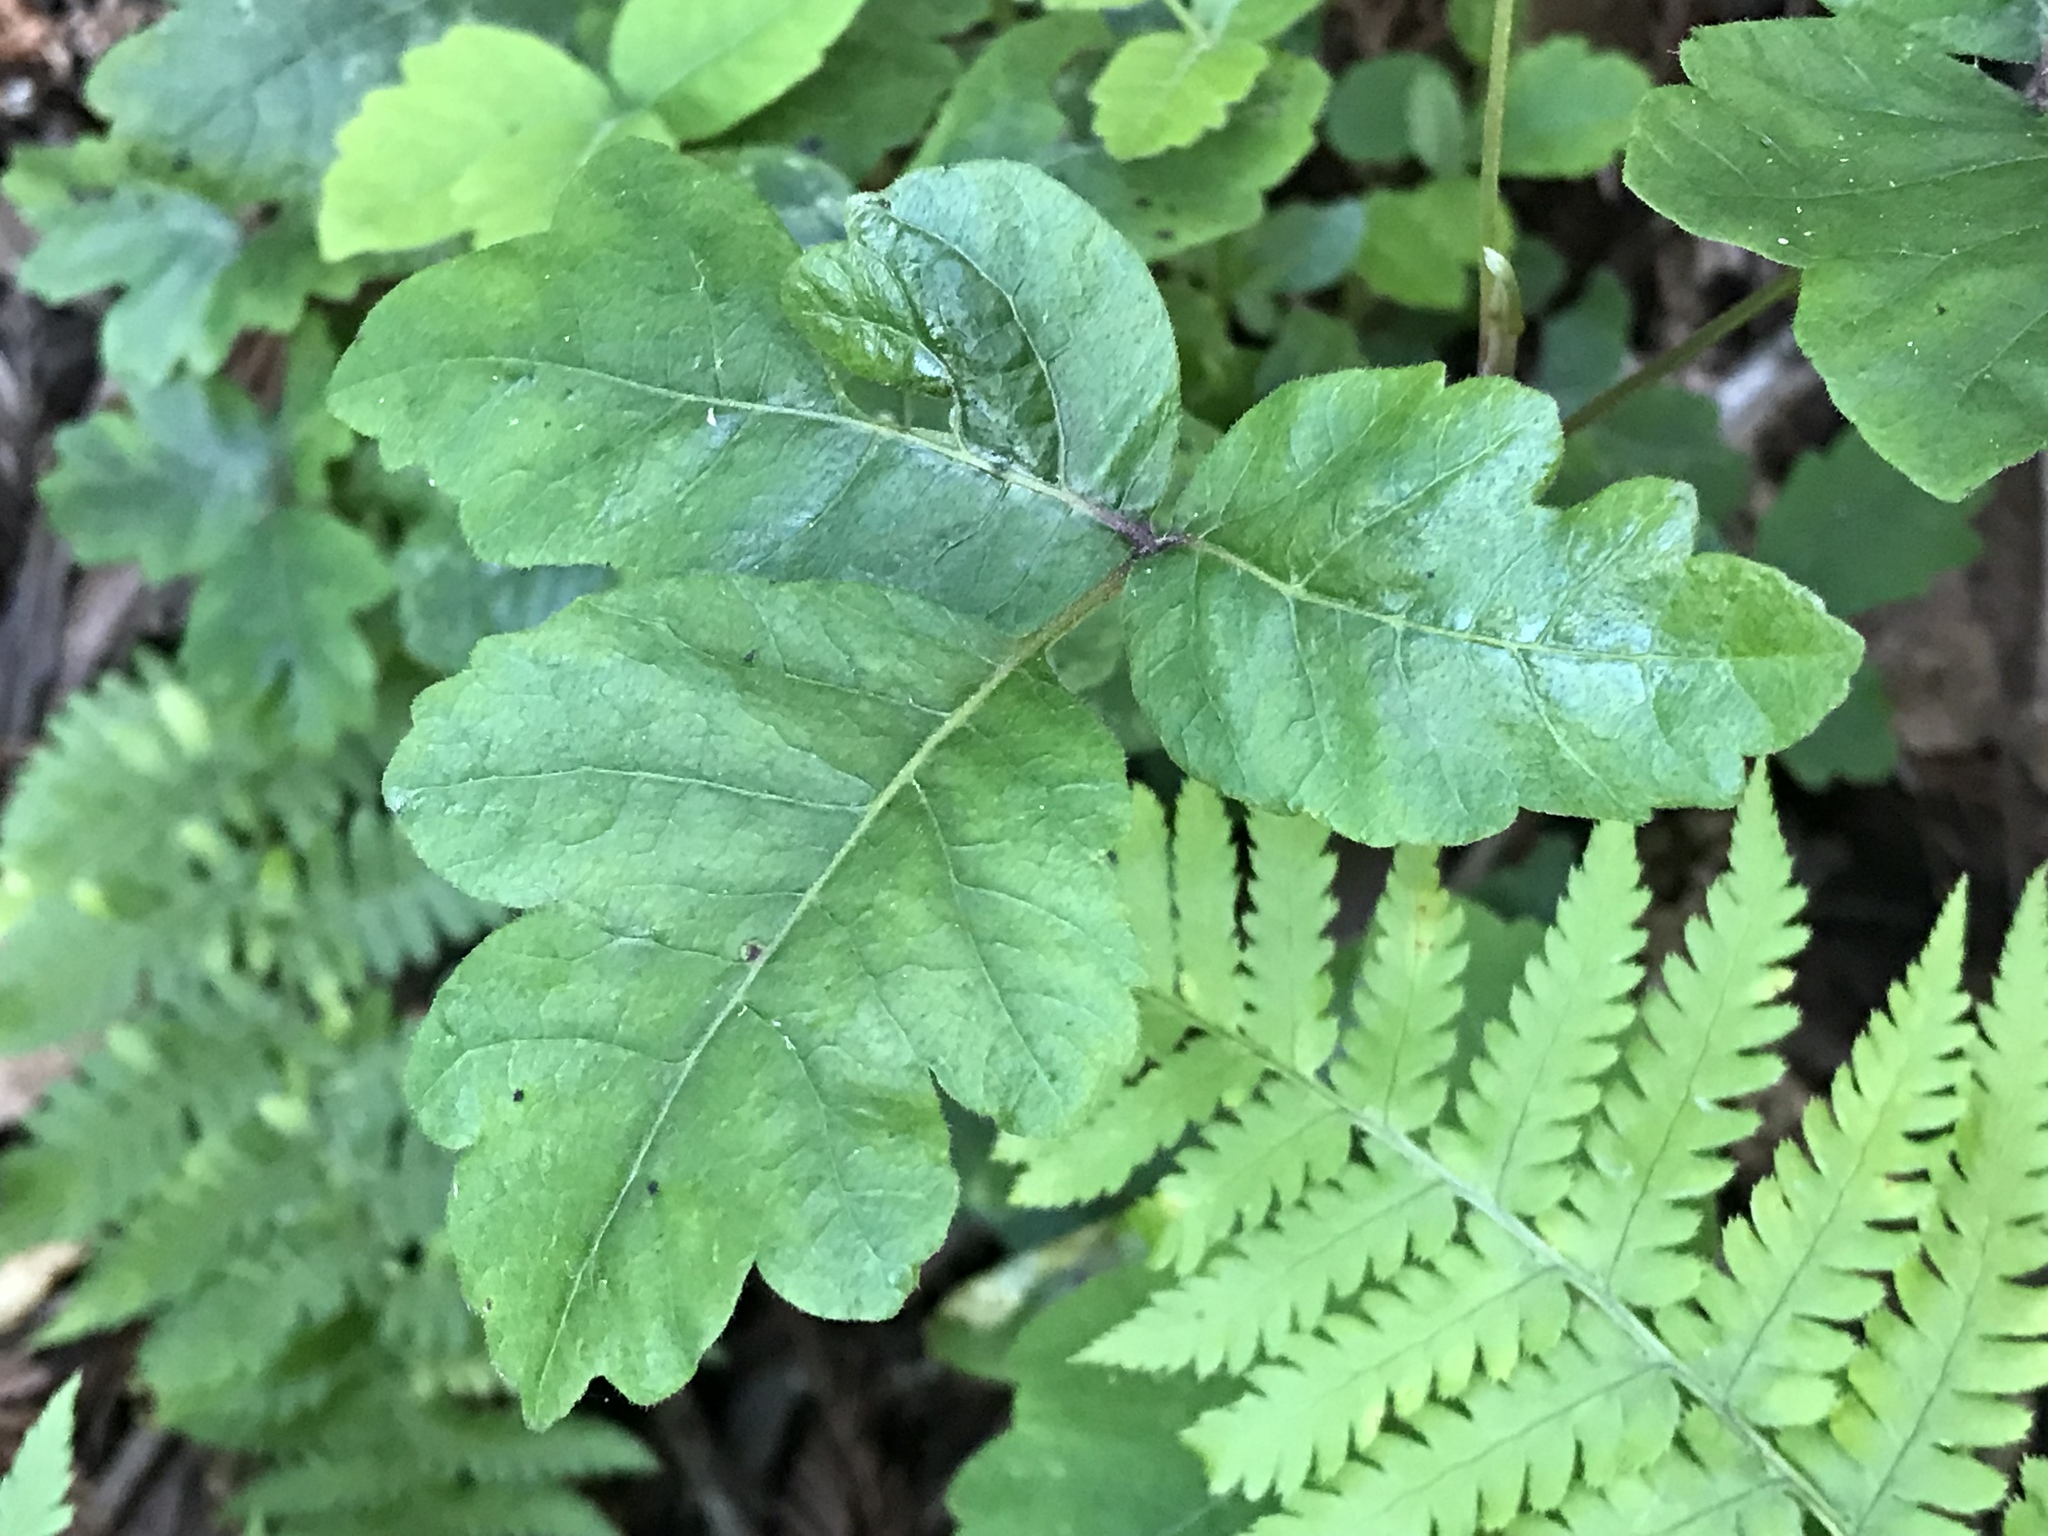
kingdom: Plantae
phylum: Tracheophyta
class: Magnoliopsida
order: Sapindales
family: Anacardiaceae
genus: Toxicodendron
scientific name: Toxicodendron diversilobum
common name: Pacific poison-oak
